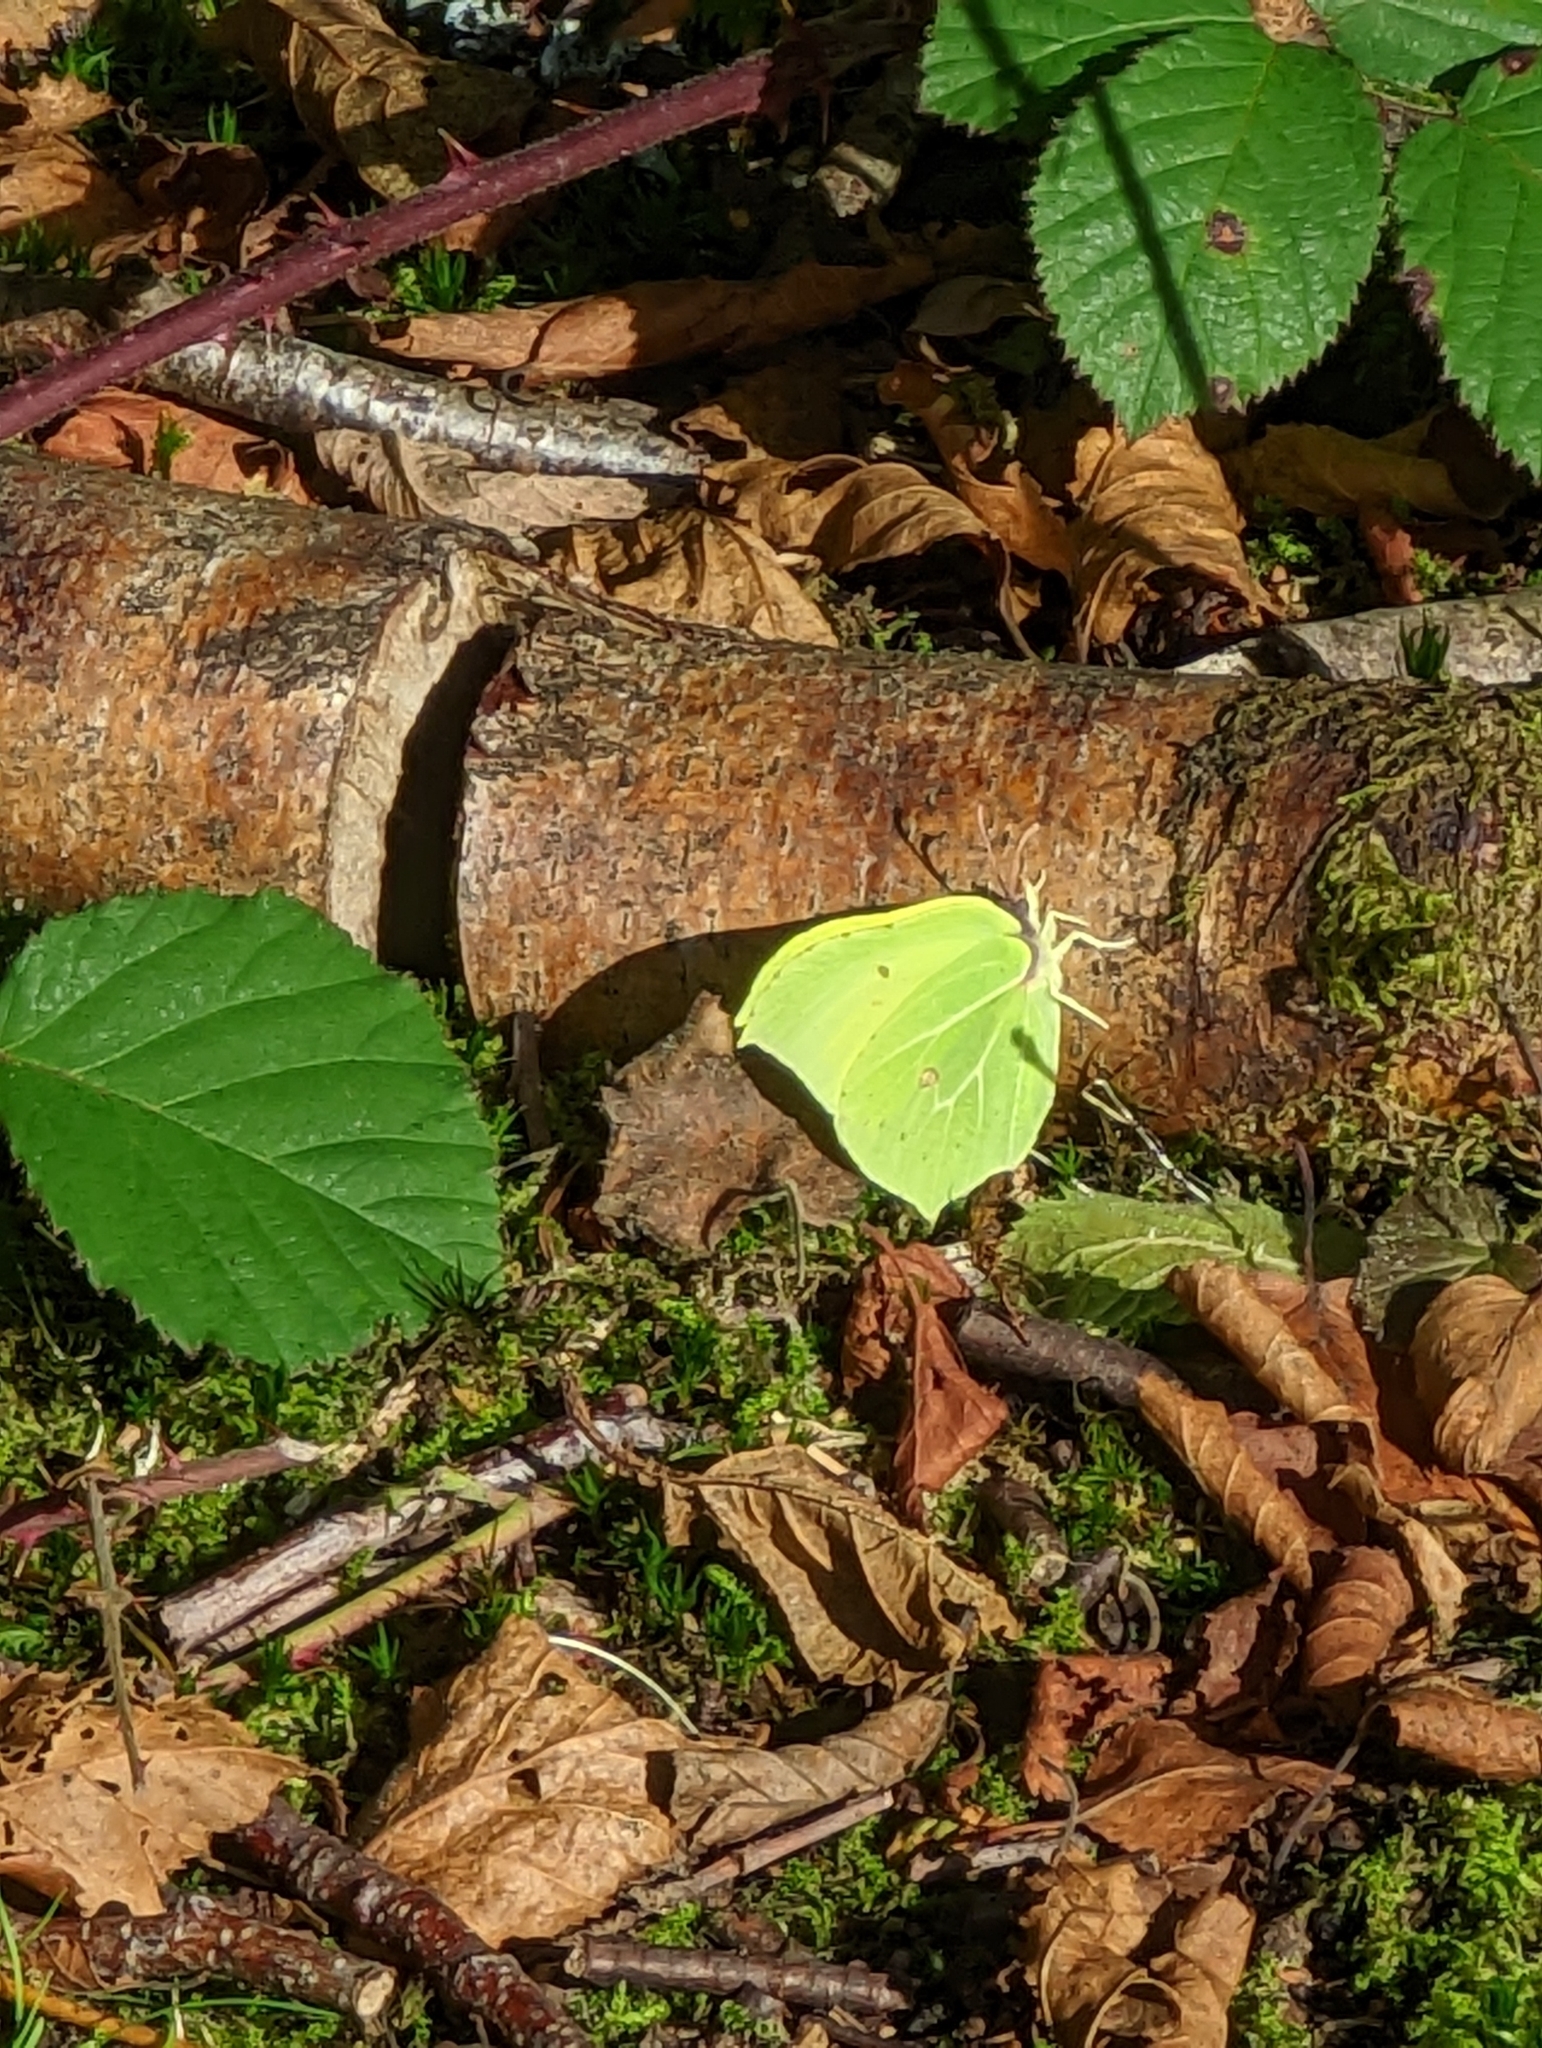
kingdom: Animalia
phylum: Arthropoda
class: Insecta
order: Lepidoptera
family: Pieridae
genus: Gonepteryx
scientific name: Gonepteryx rhamni
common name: Brimstone
